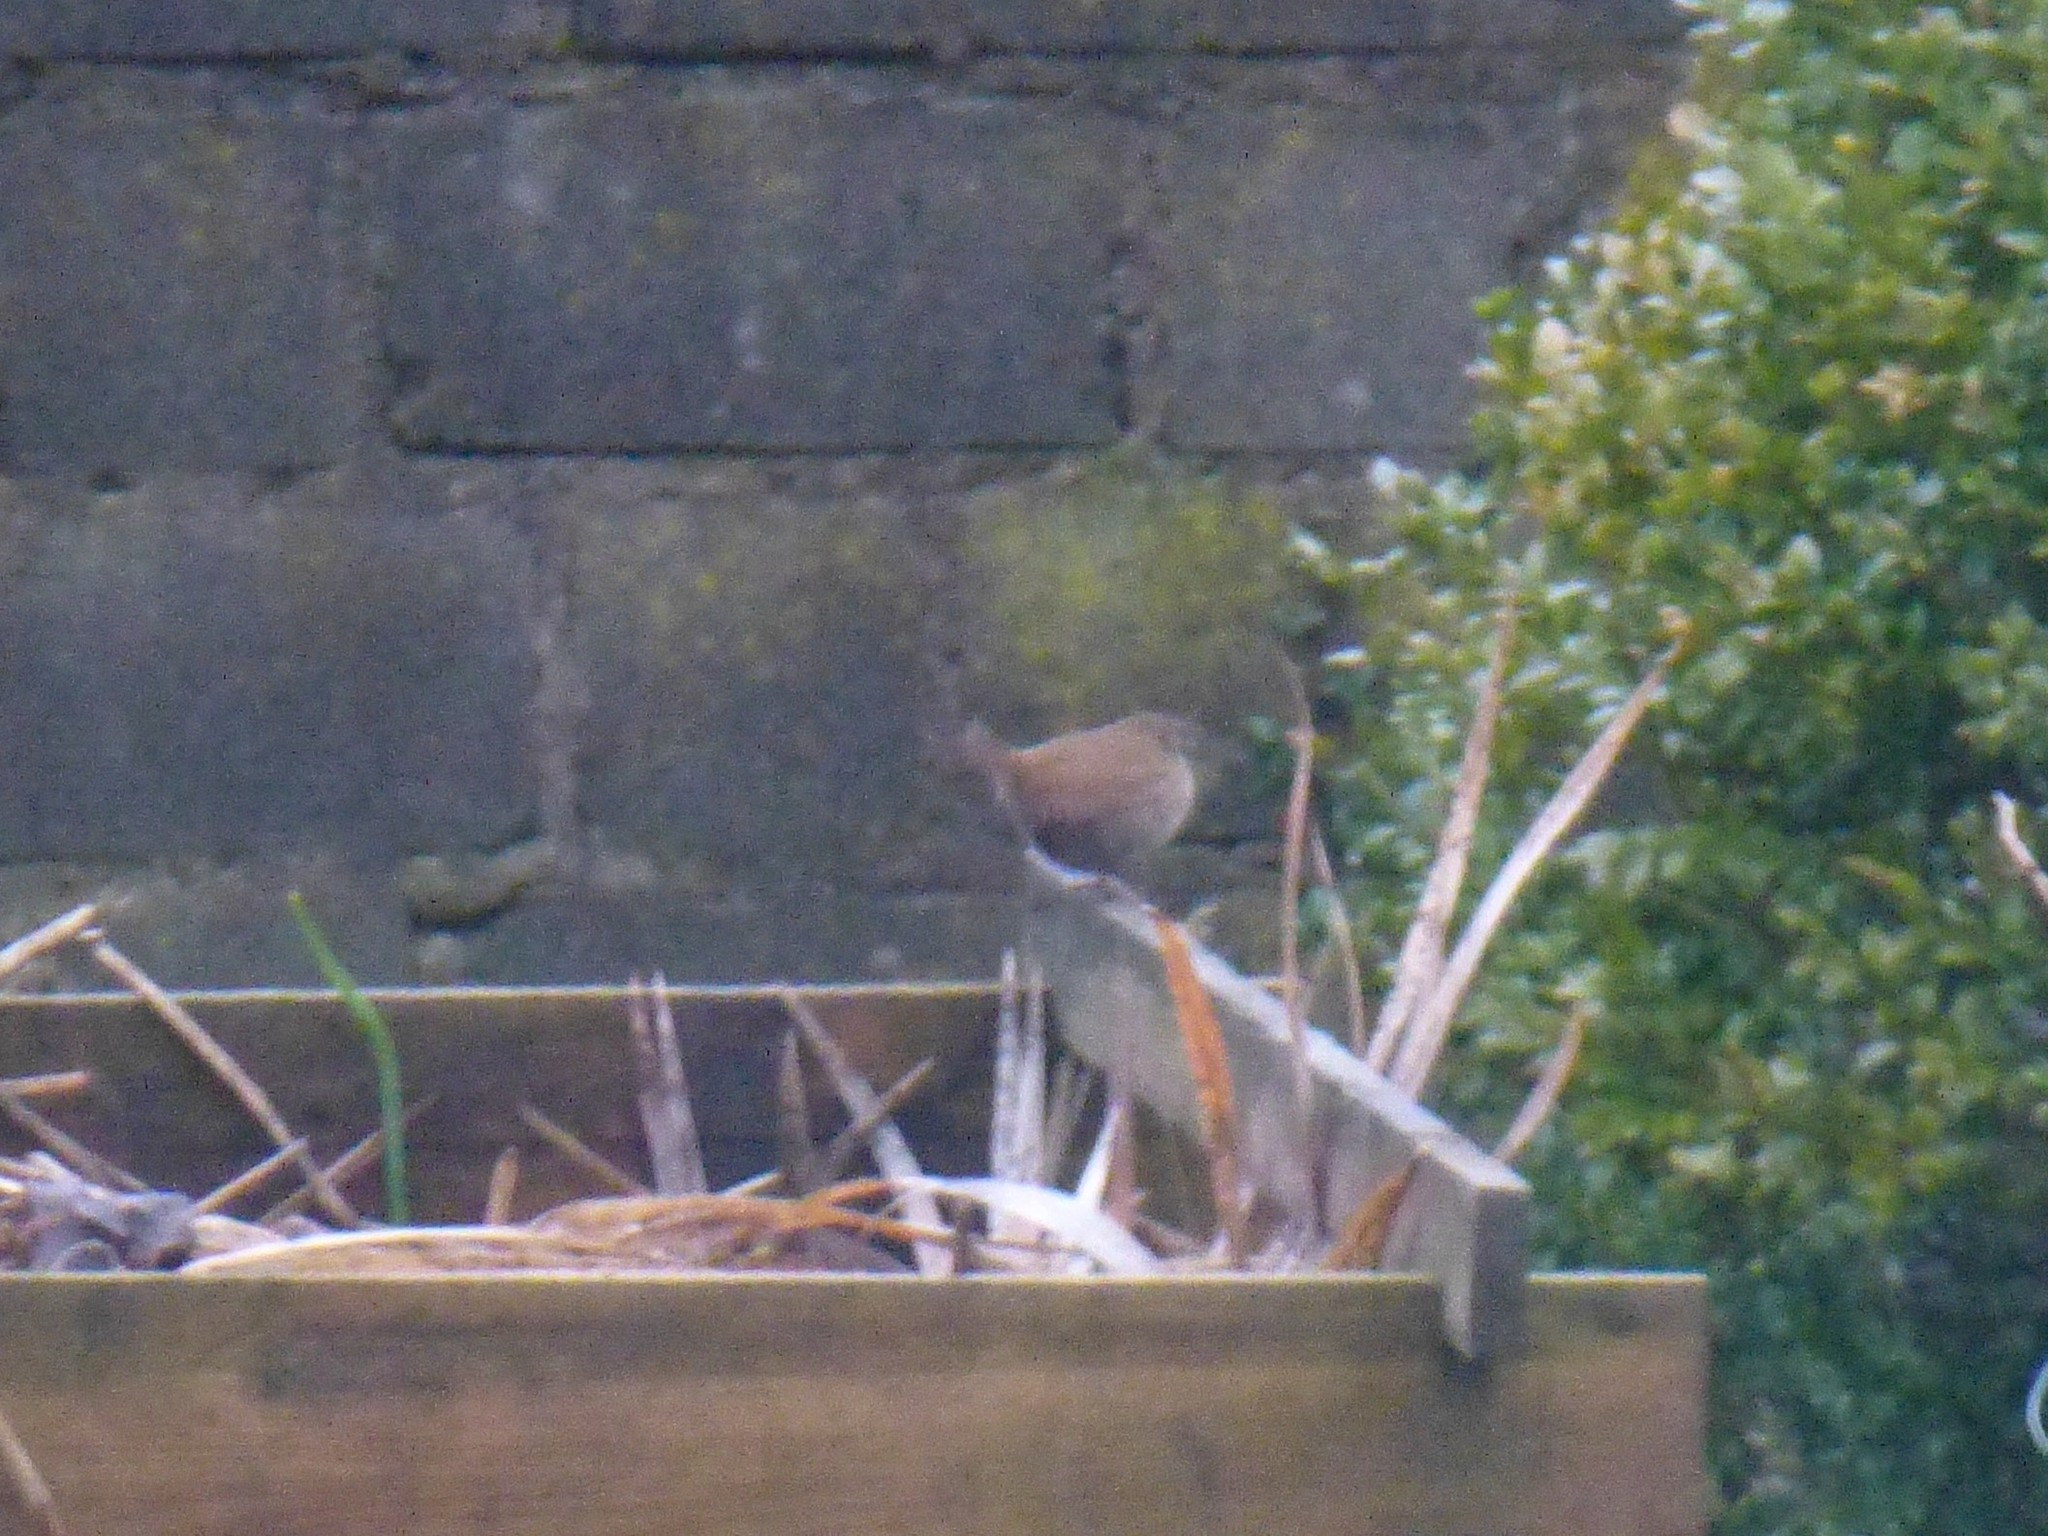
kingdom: Animalia
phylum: Chordata
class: Aves
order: Passeriformes
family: Troglodytidae
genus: Troglodytes
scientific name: Troglodytes troglodytes
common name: Eurasian wren
